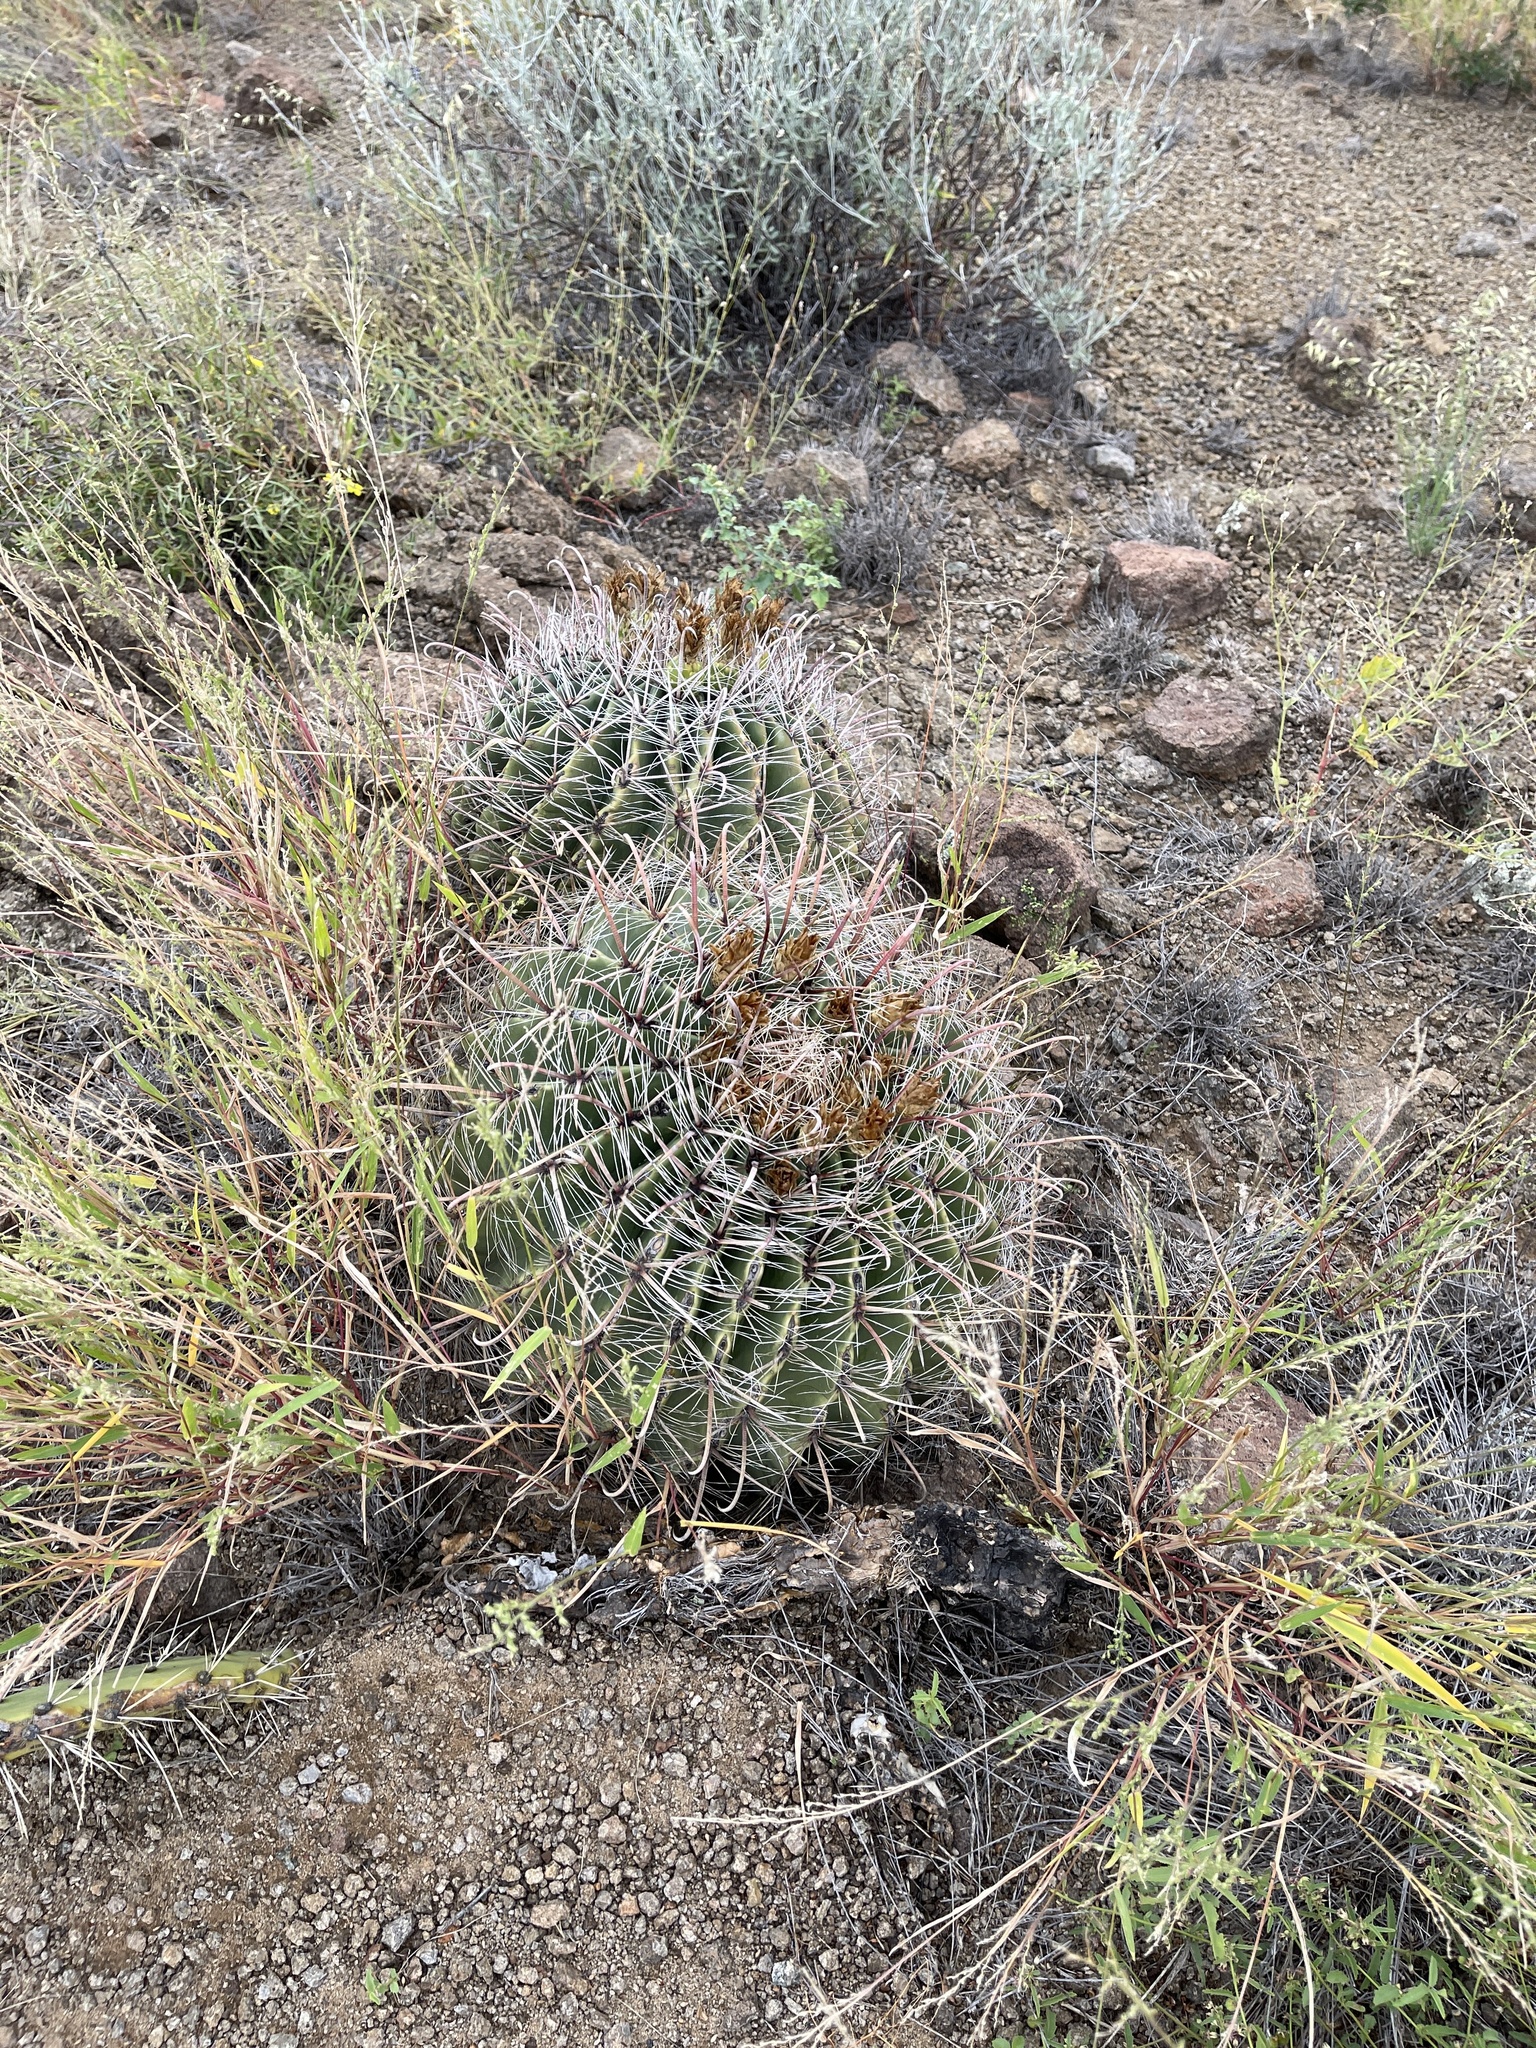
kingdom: Plantae
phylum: Tracheophyta
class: Magnoliopsida
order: Caryophyllales
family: Cactaceae
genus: Ferocactus
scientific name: Ferocactus wislizeni
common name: Candy barrel cactus
